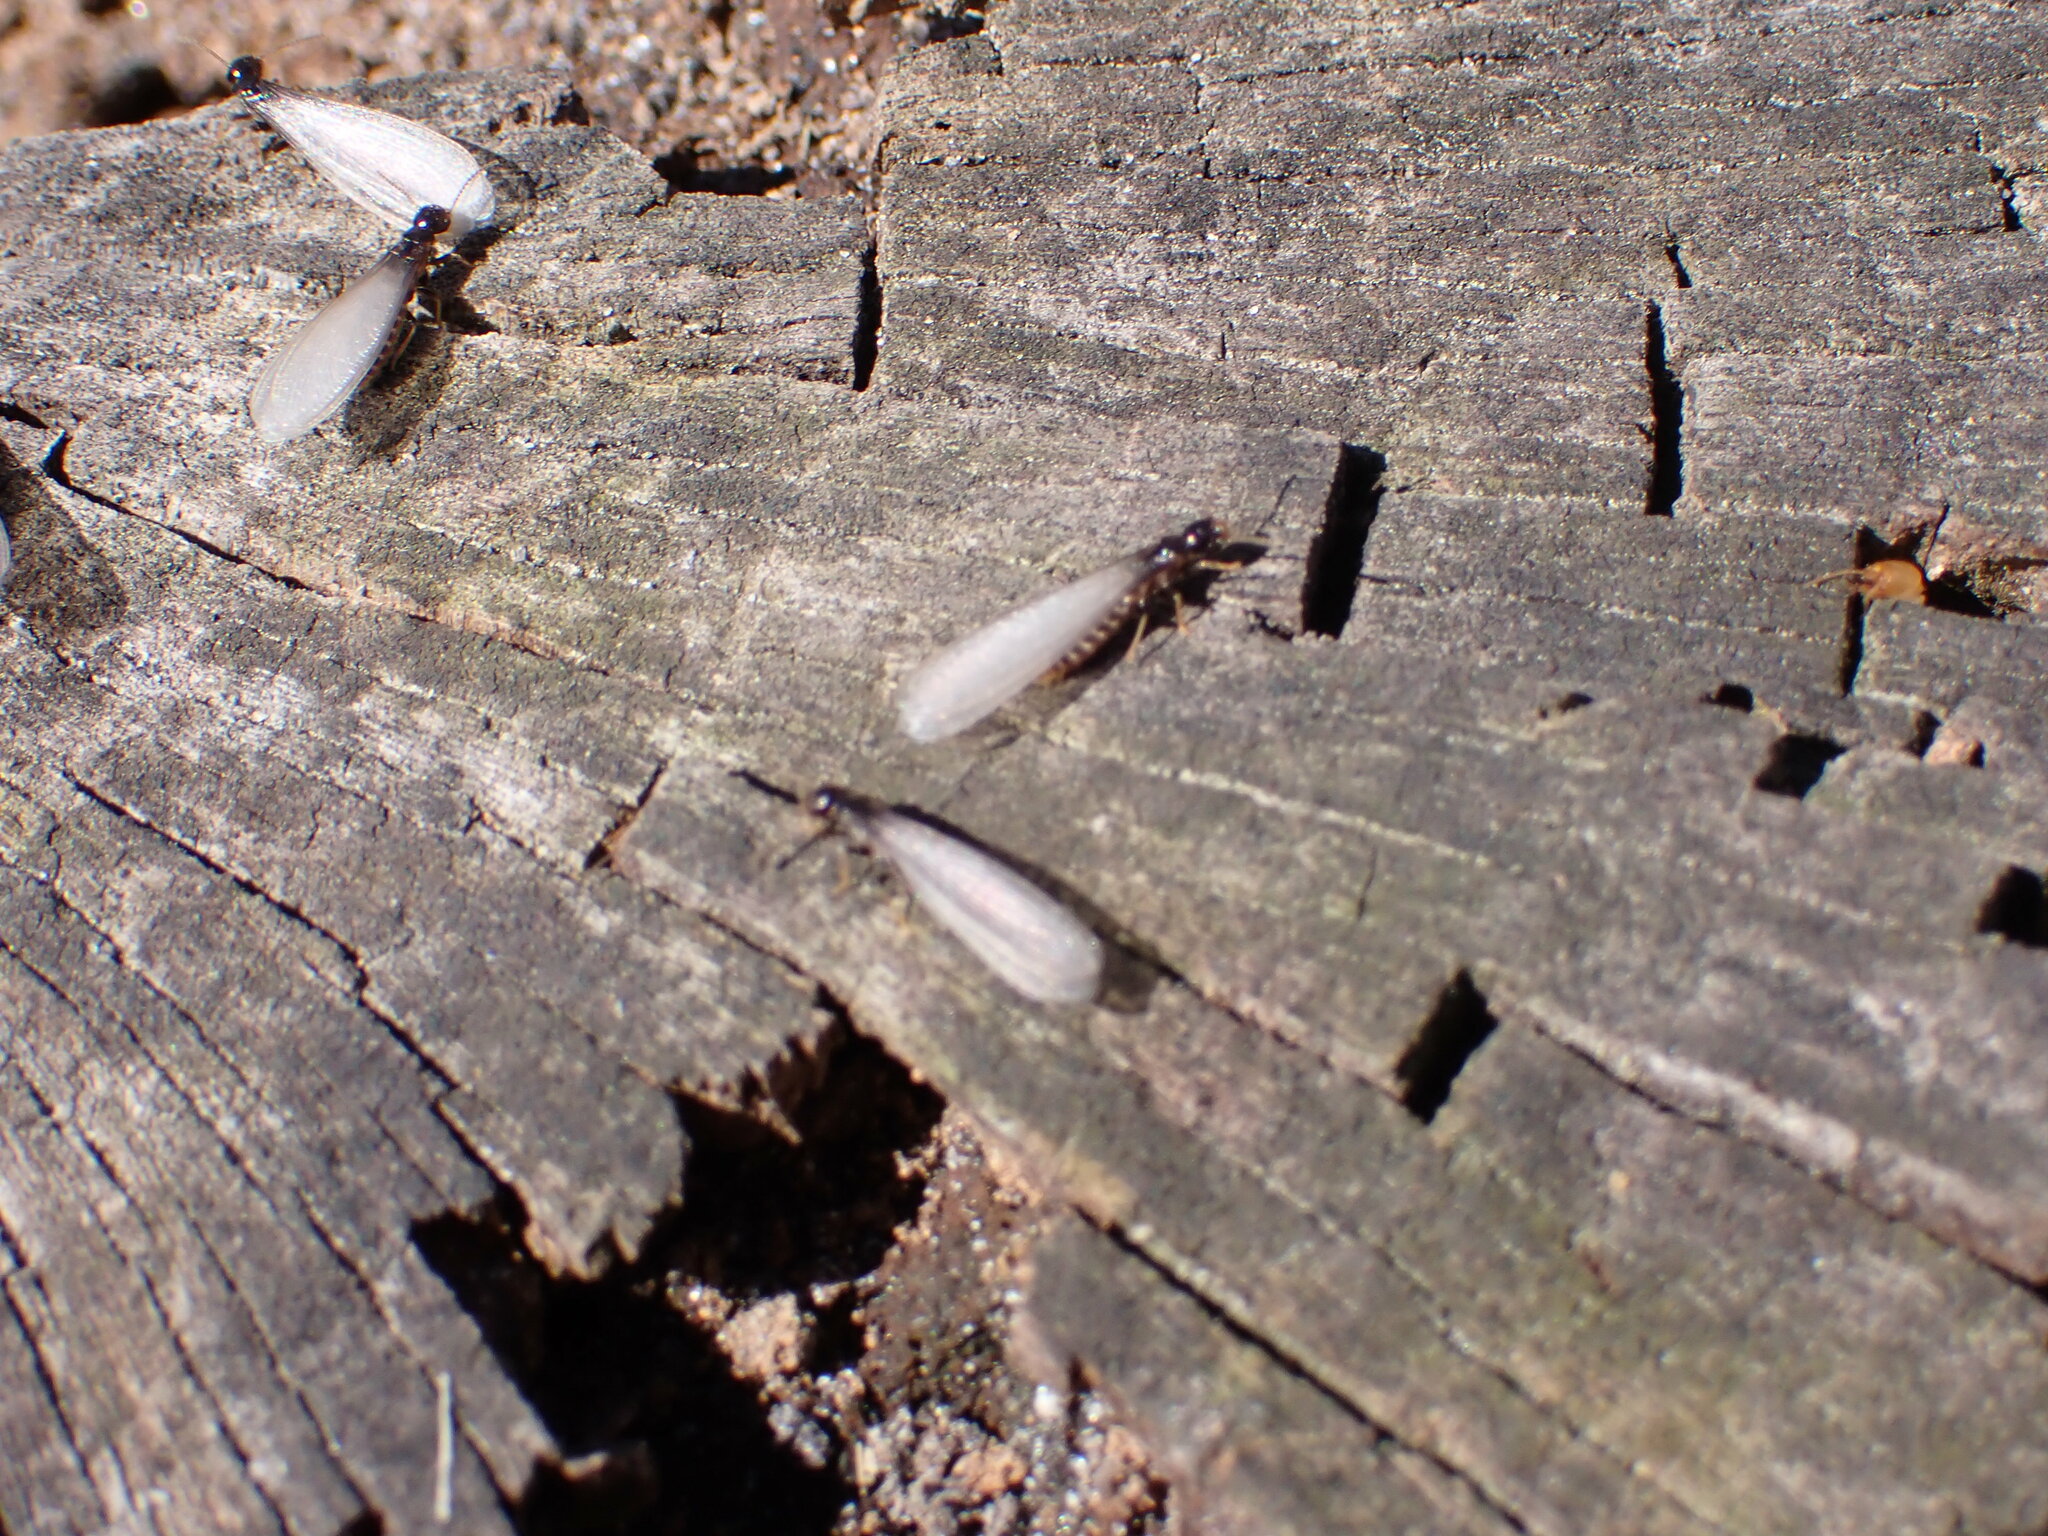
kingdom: Animalia
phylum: Arthropoda
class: Insecta
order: Blattodea
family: Rhinotermitidae
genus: Reticulitermes
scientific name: Reticulitermes flavipes
